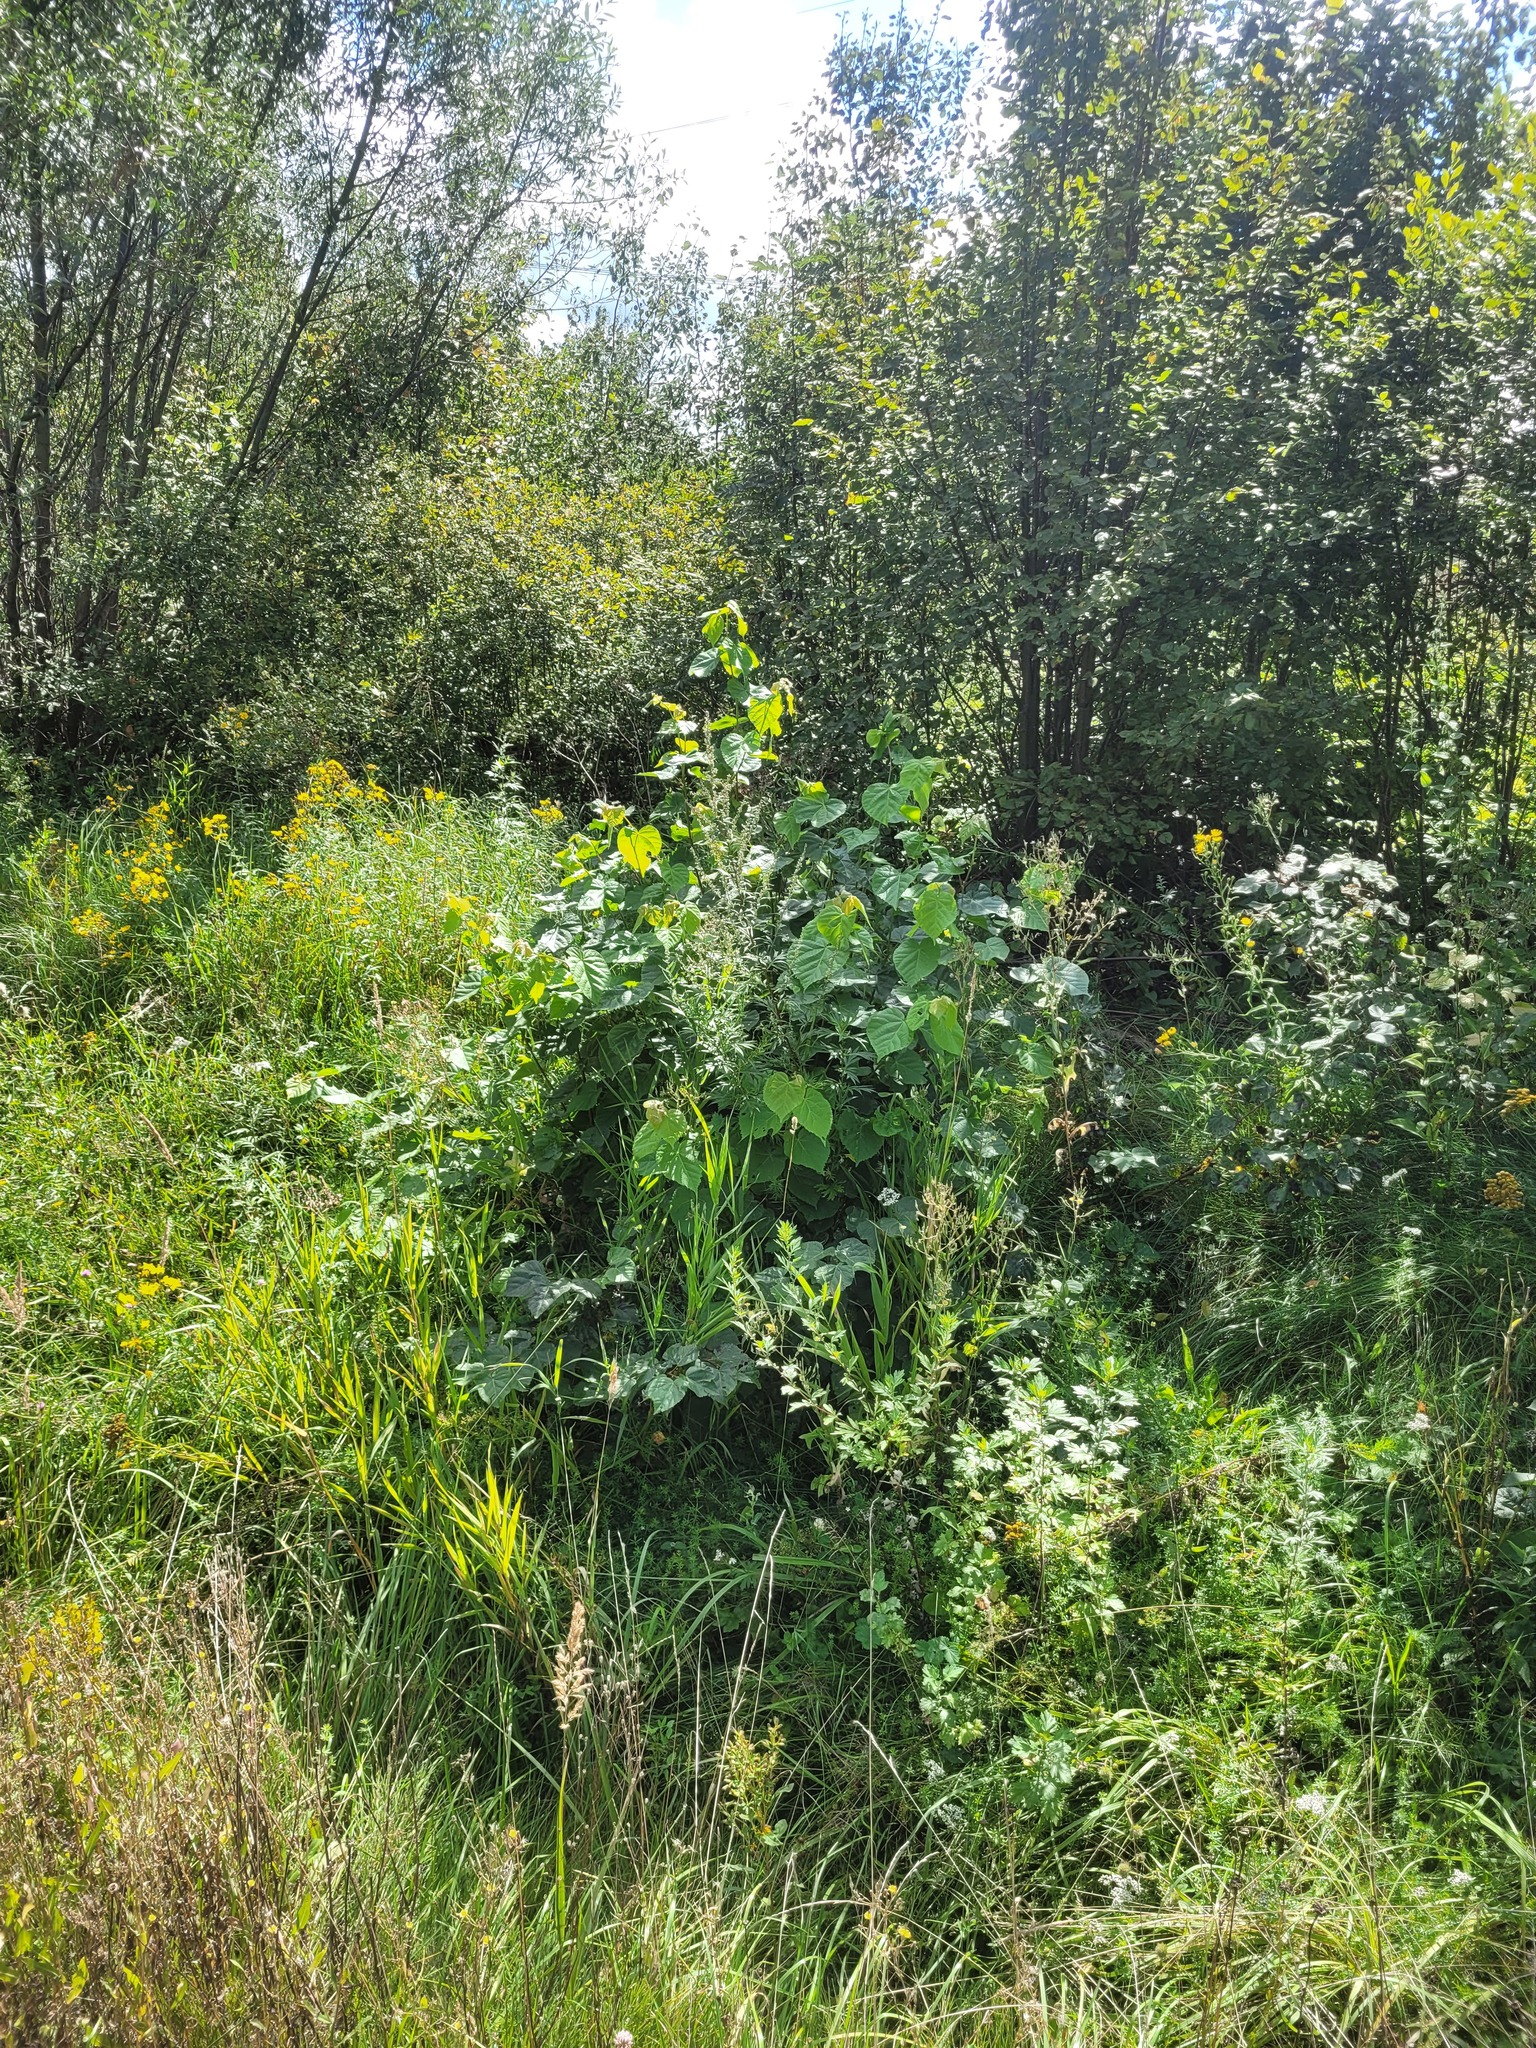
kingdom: Plantae
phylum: Tracheophyta
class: Magnoliopsida
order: Malvales
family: Malvaceae
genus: Tilia
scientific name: Tilia cordata
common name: Small-leaved lime
